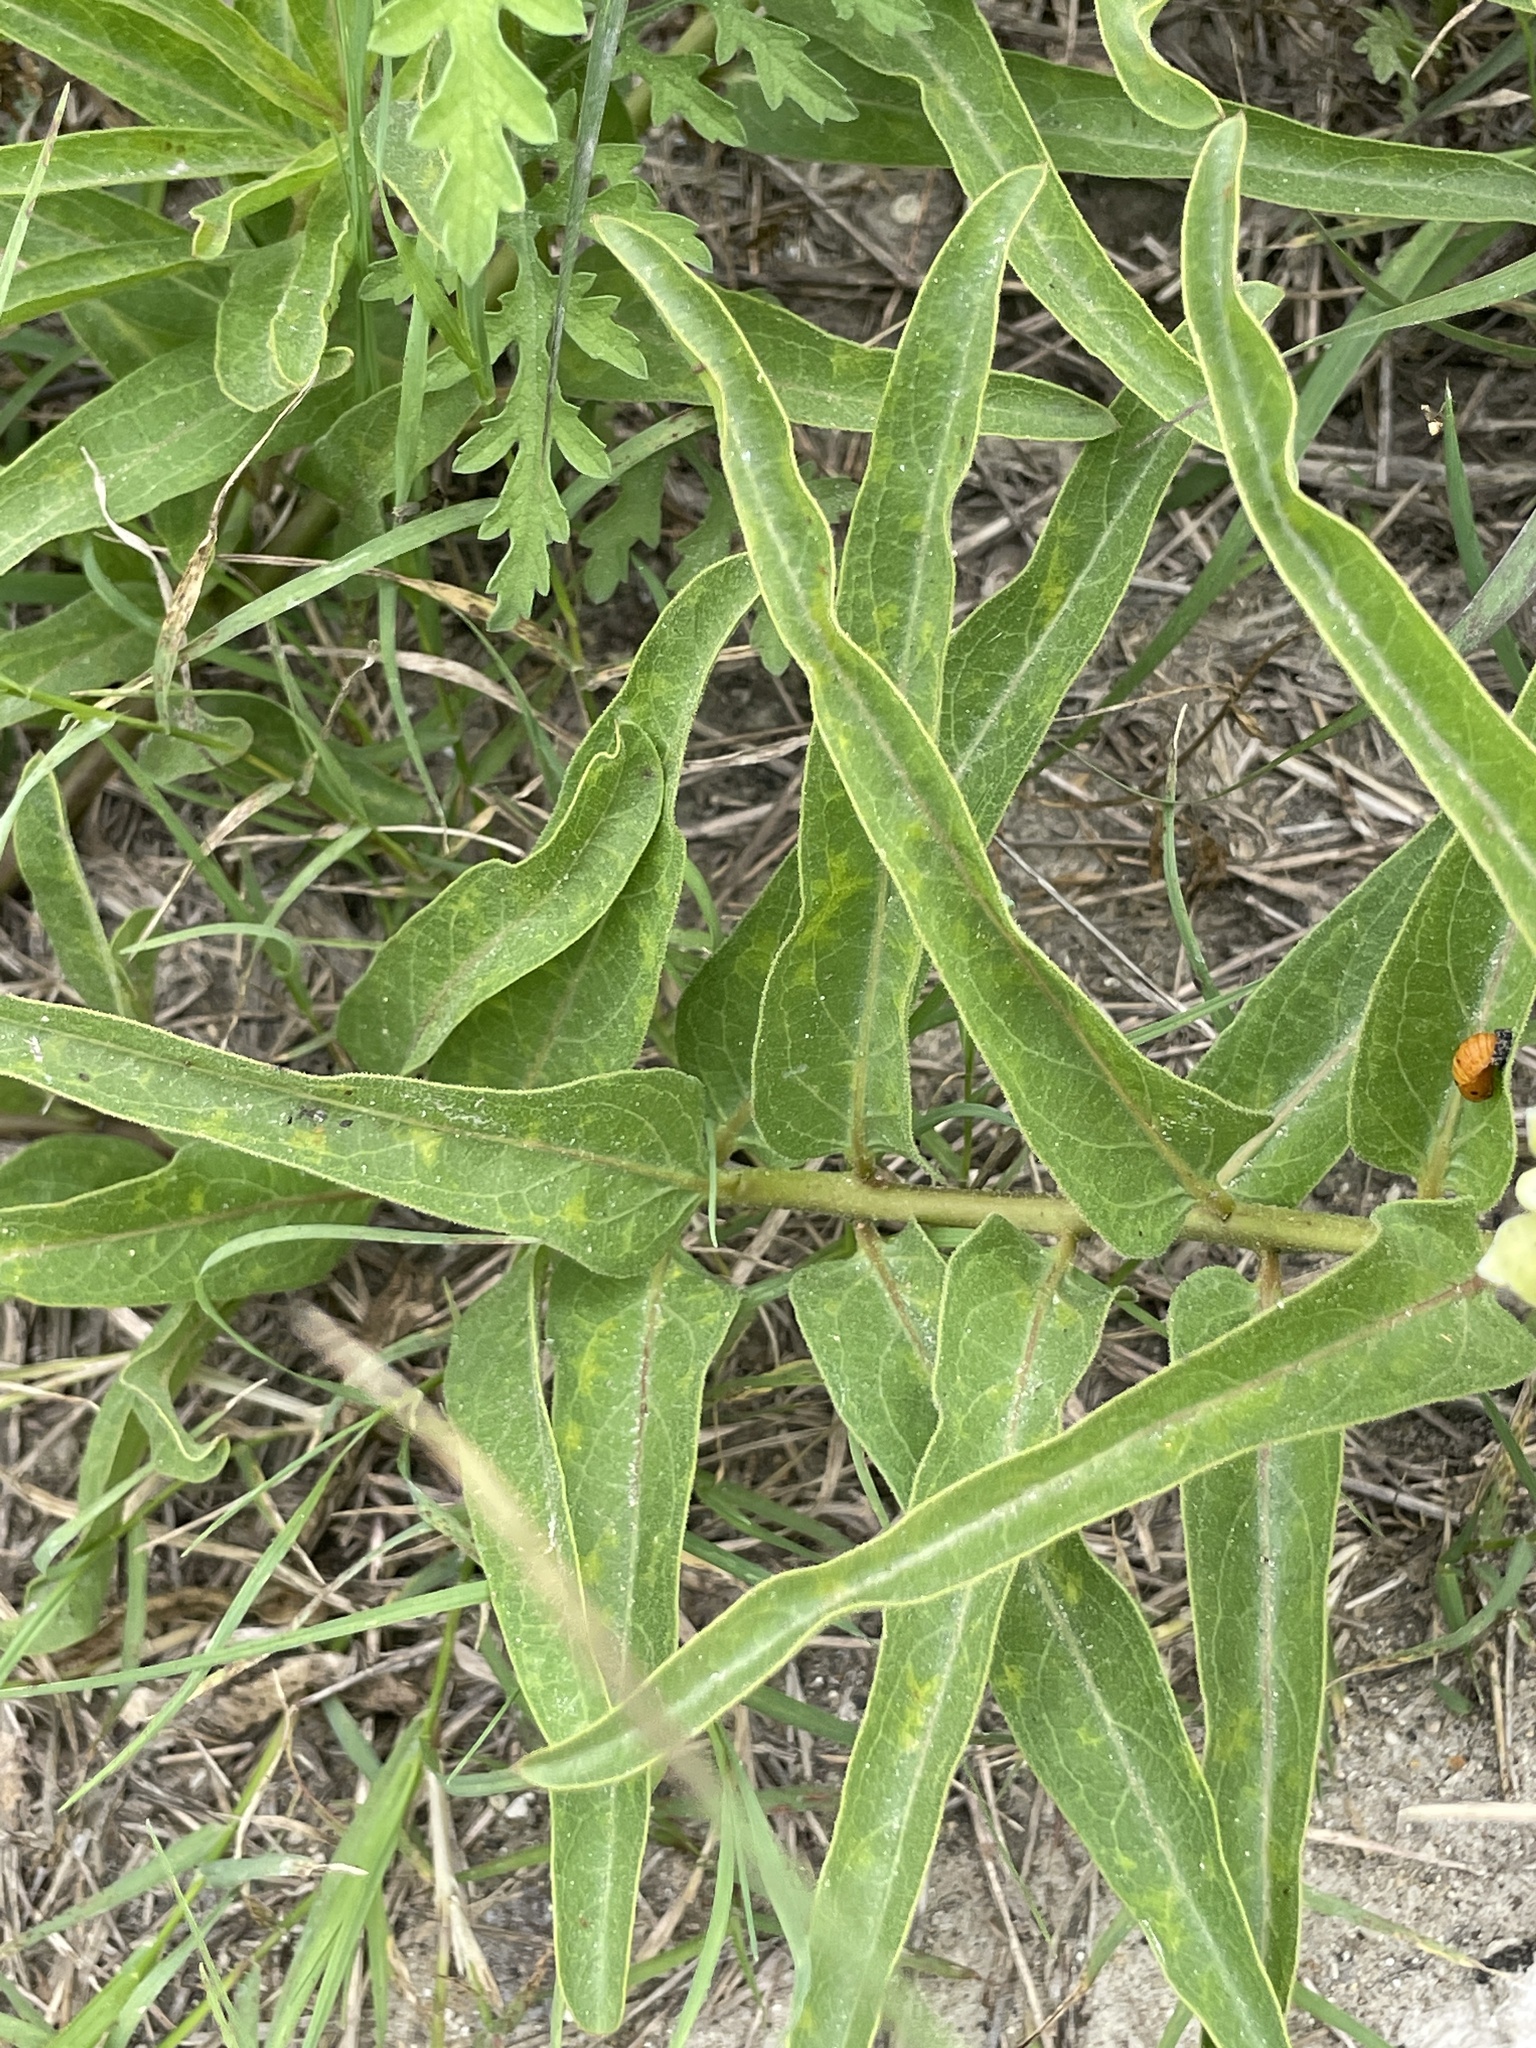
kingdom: Plantae
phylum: Tracheophyta
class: Magnoliopsida
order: Gentianales
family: Apocynaceae
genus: Asclepias
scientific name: Asclepias asperula
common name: Antelope horns
